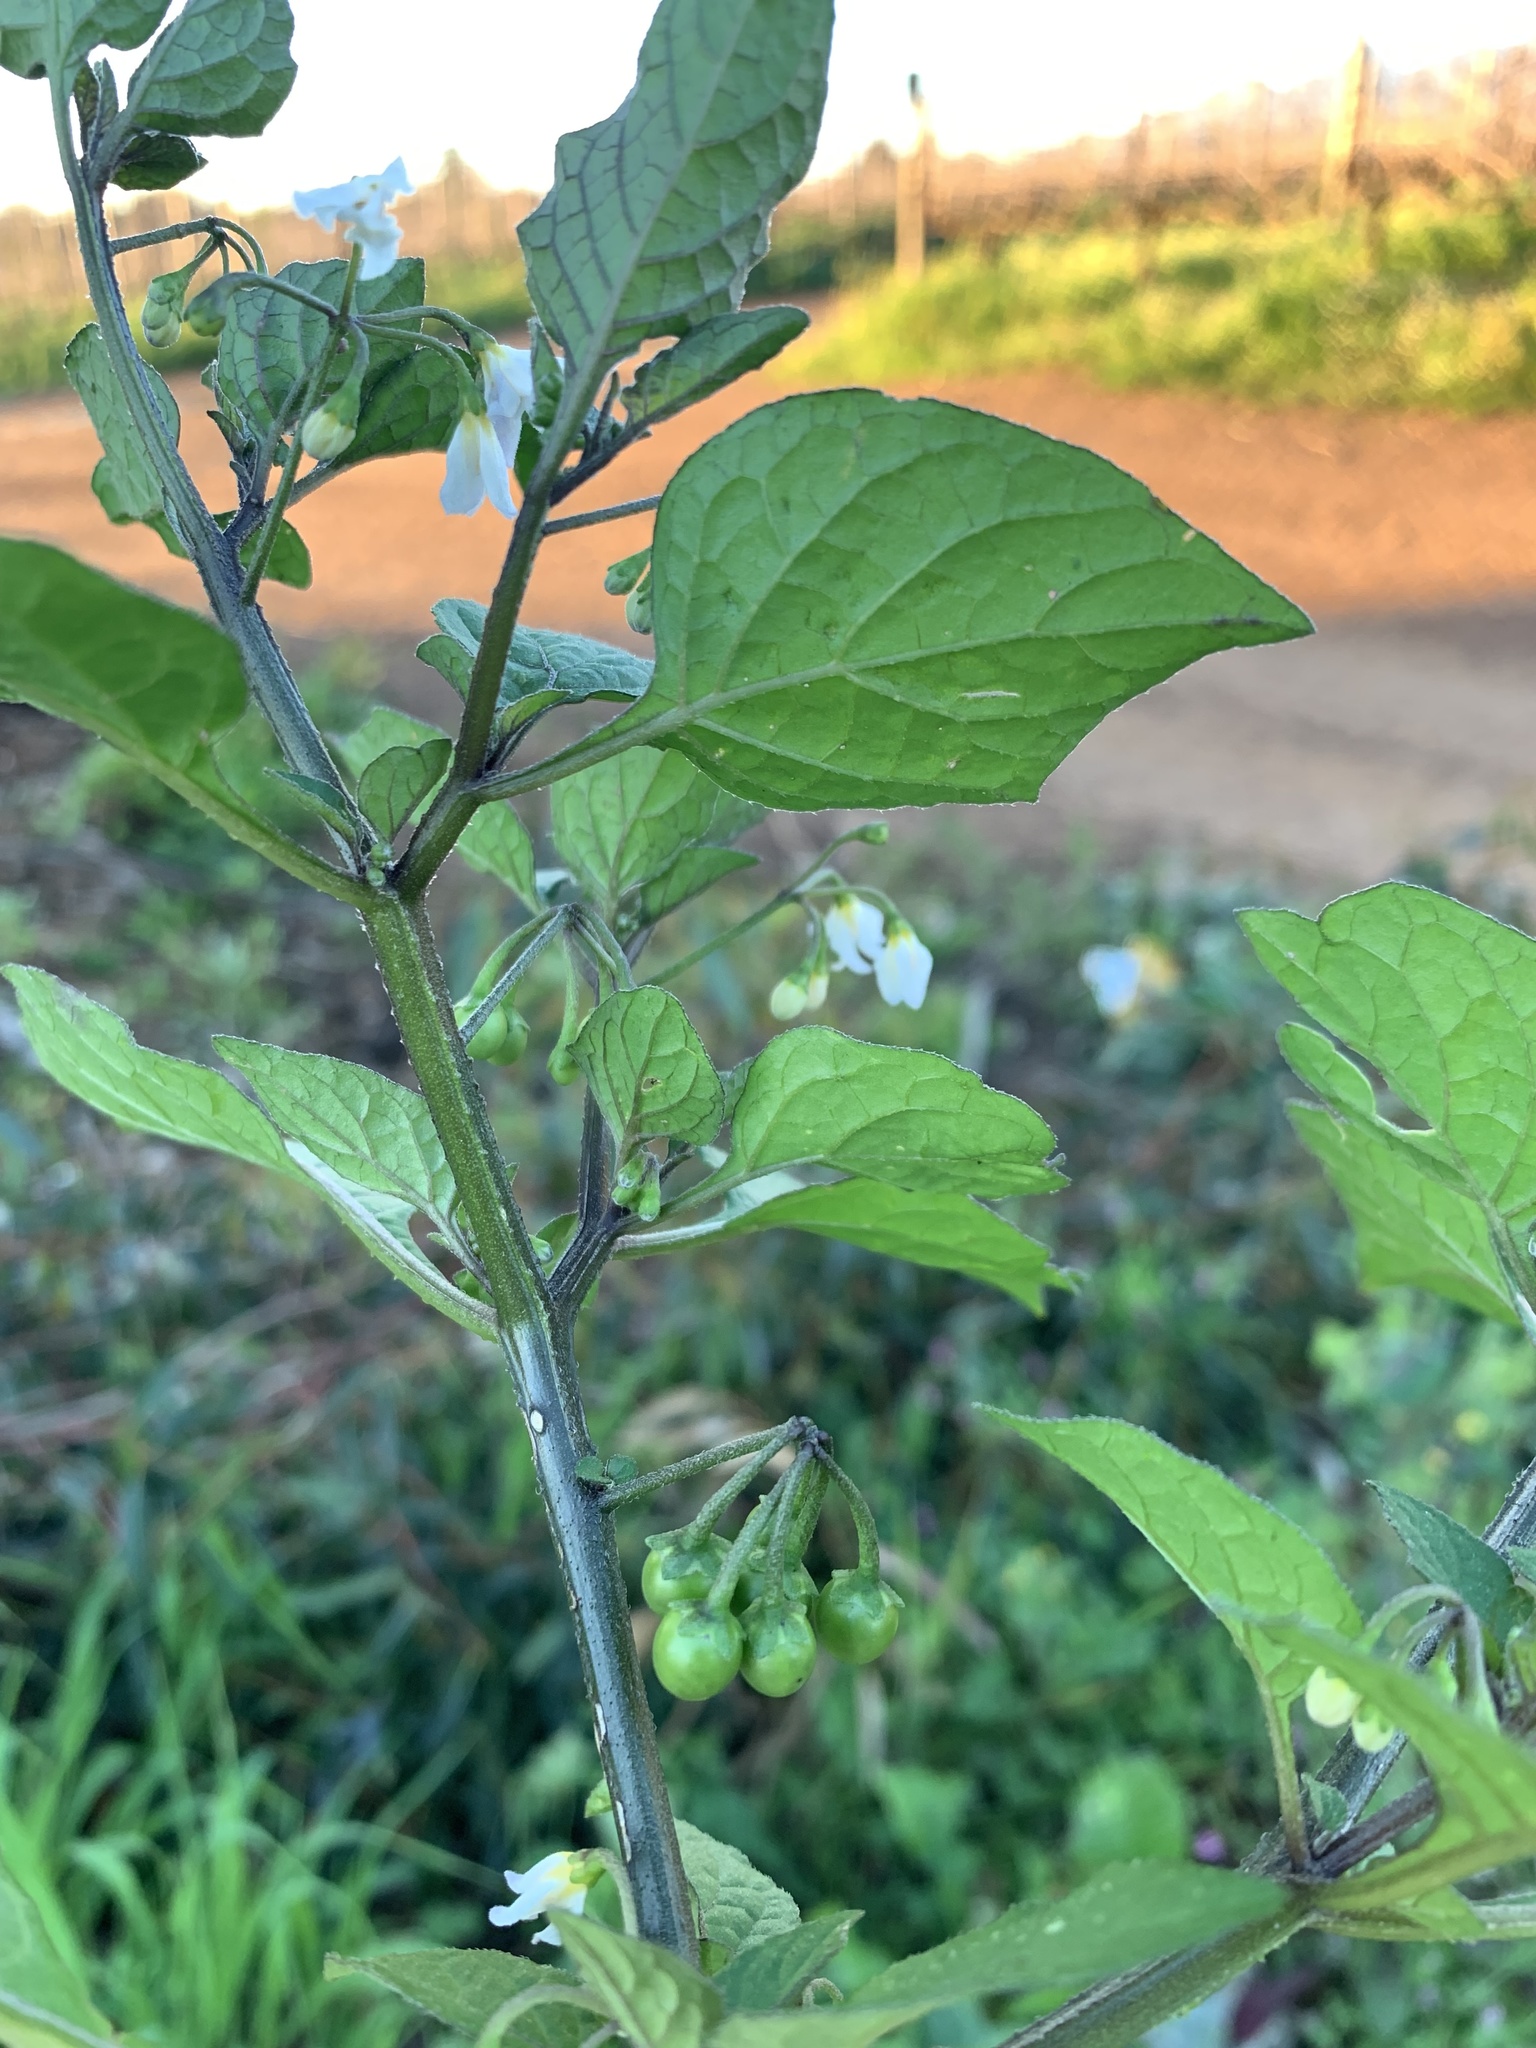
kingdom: Plantae
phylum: Tracheophyta
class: Magnoliopsida
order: Solanales
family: Solanaceae
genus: Solanum
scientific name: Solanum nigrum
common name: Black nightshade
